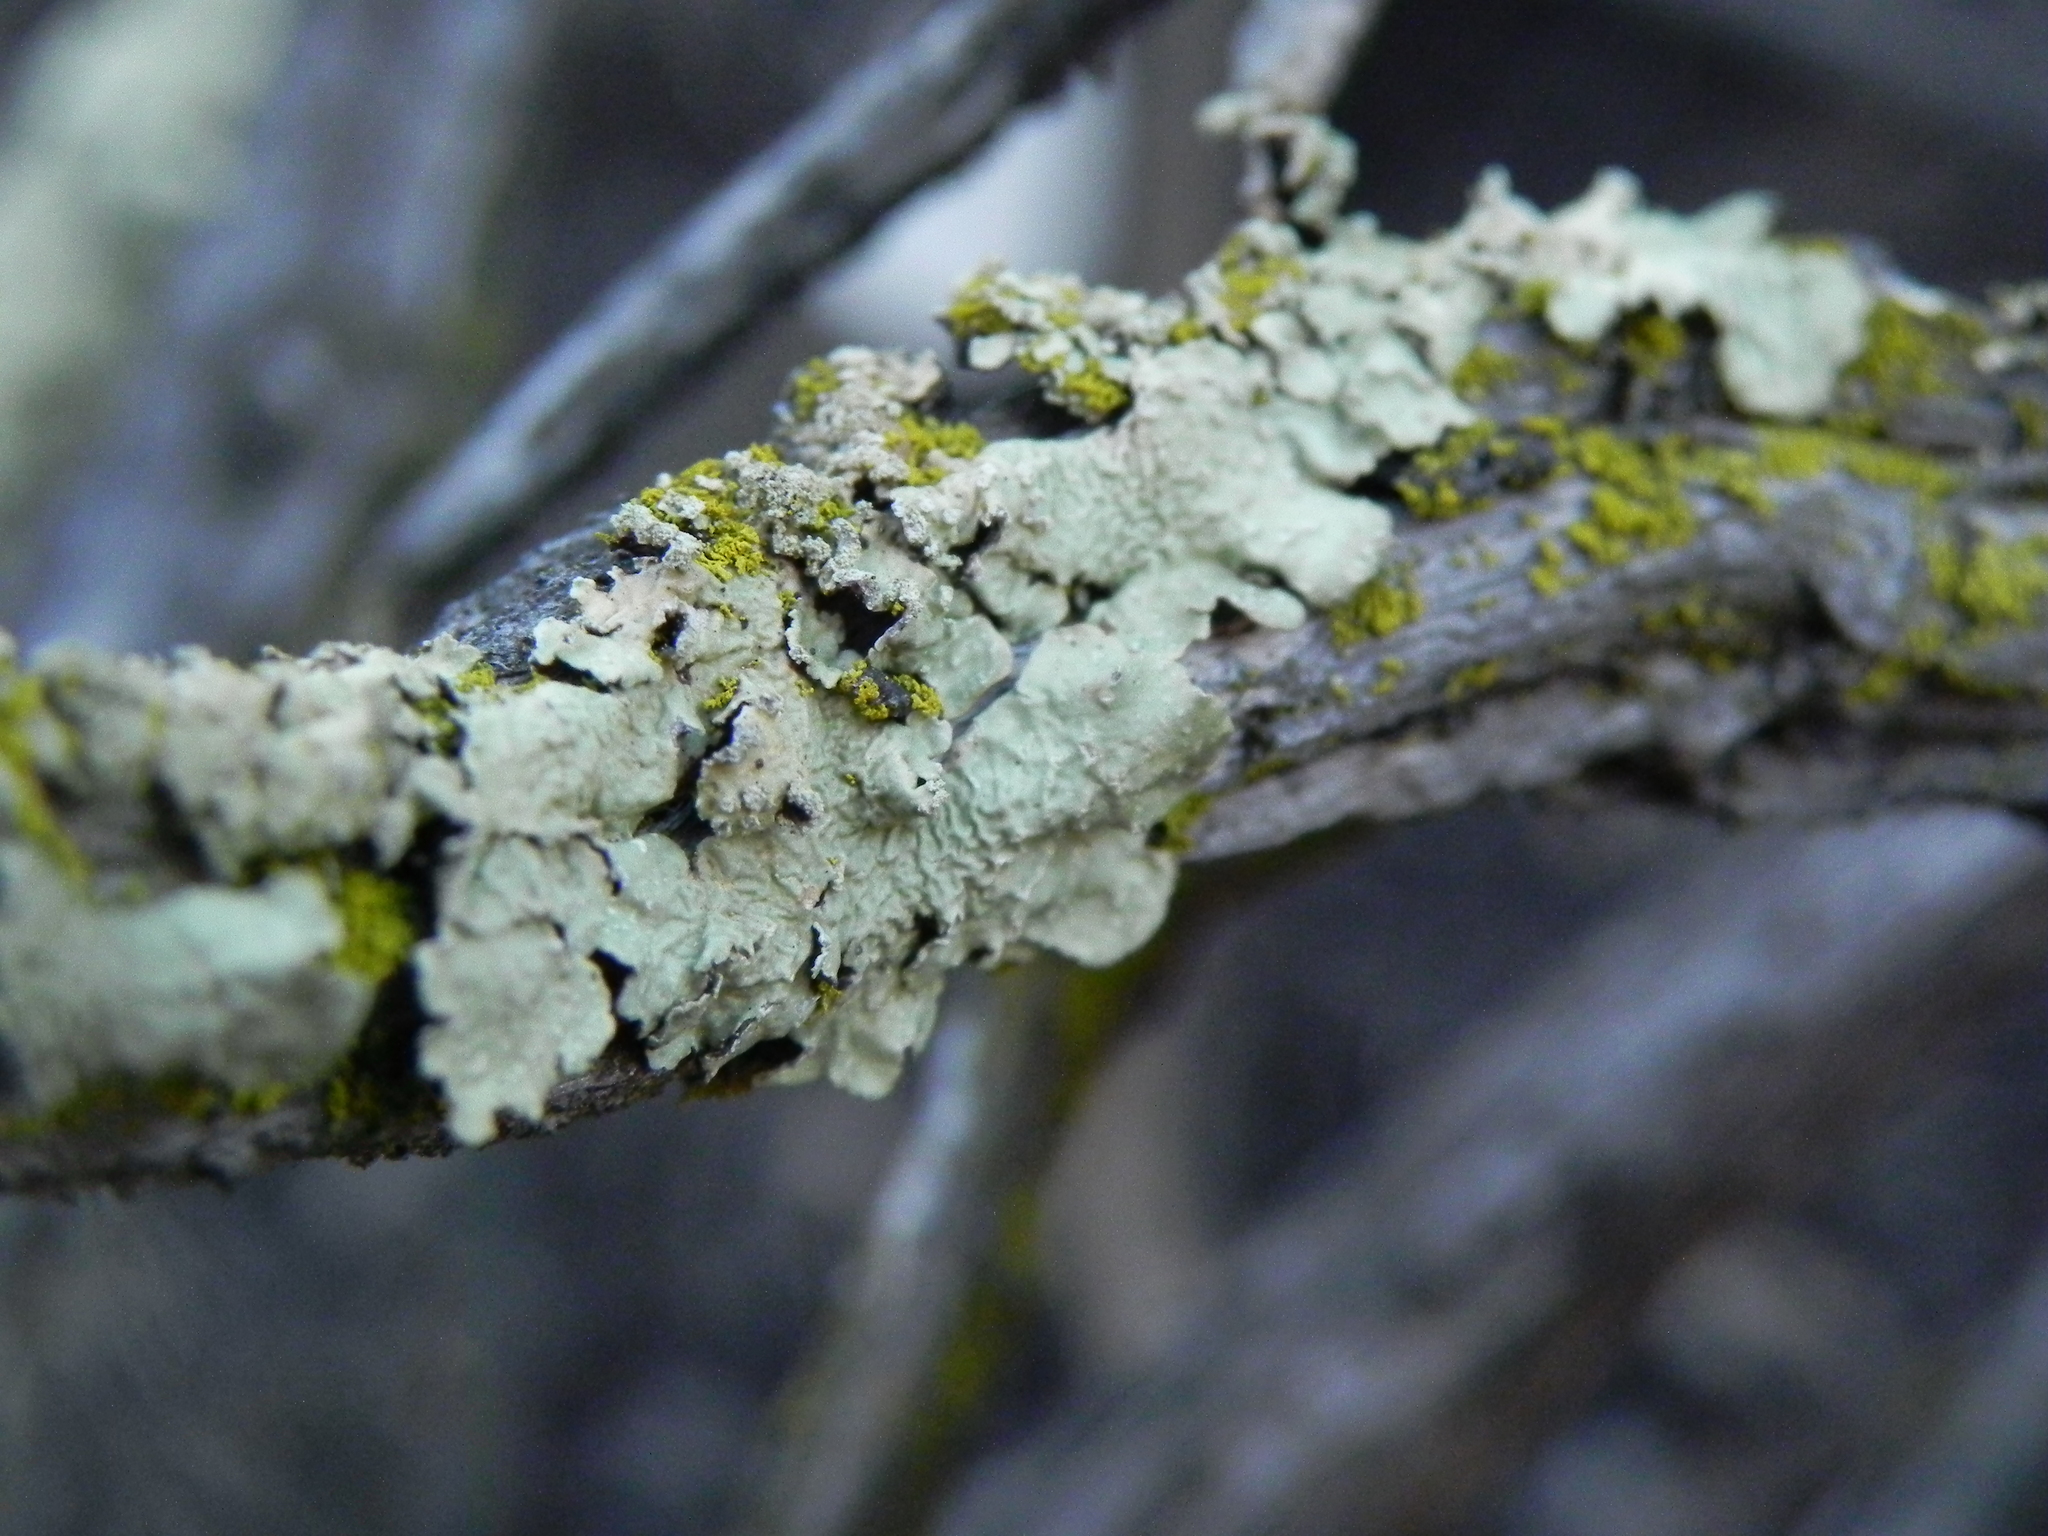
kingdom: Fungi
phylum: Ascomycota
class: Lecanoromycetes
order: Lecanorales
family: Parmeliaceae
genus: Flavoparmelia
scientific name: Flavoparmelia caperata
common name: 40-mile per hour lichen
